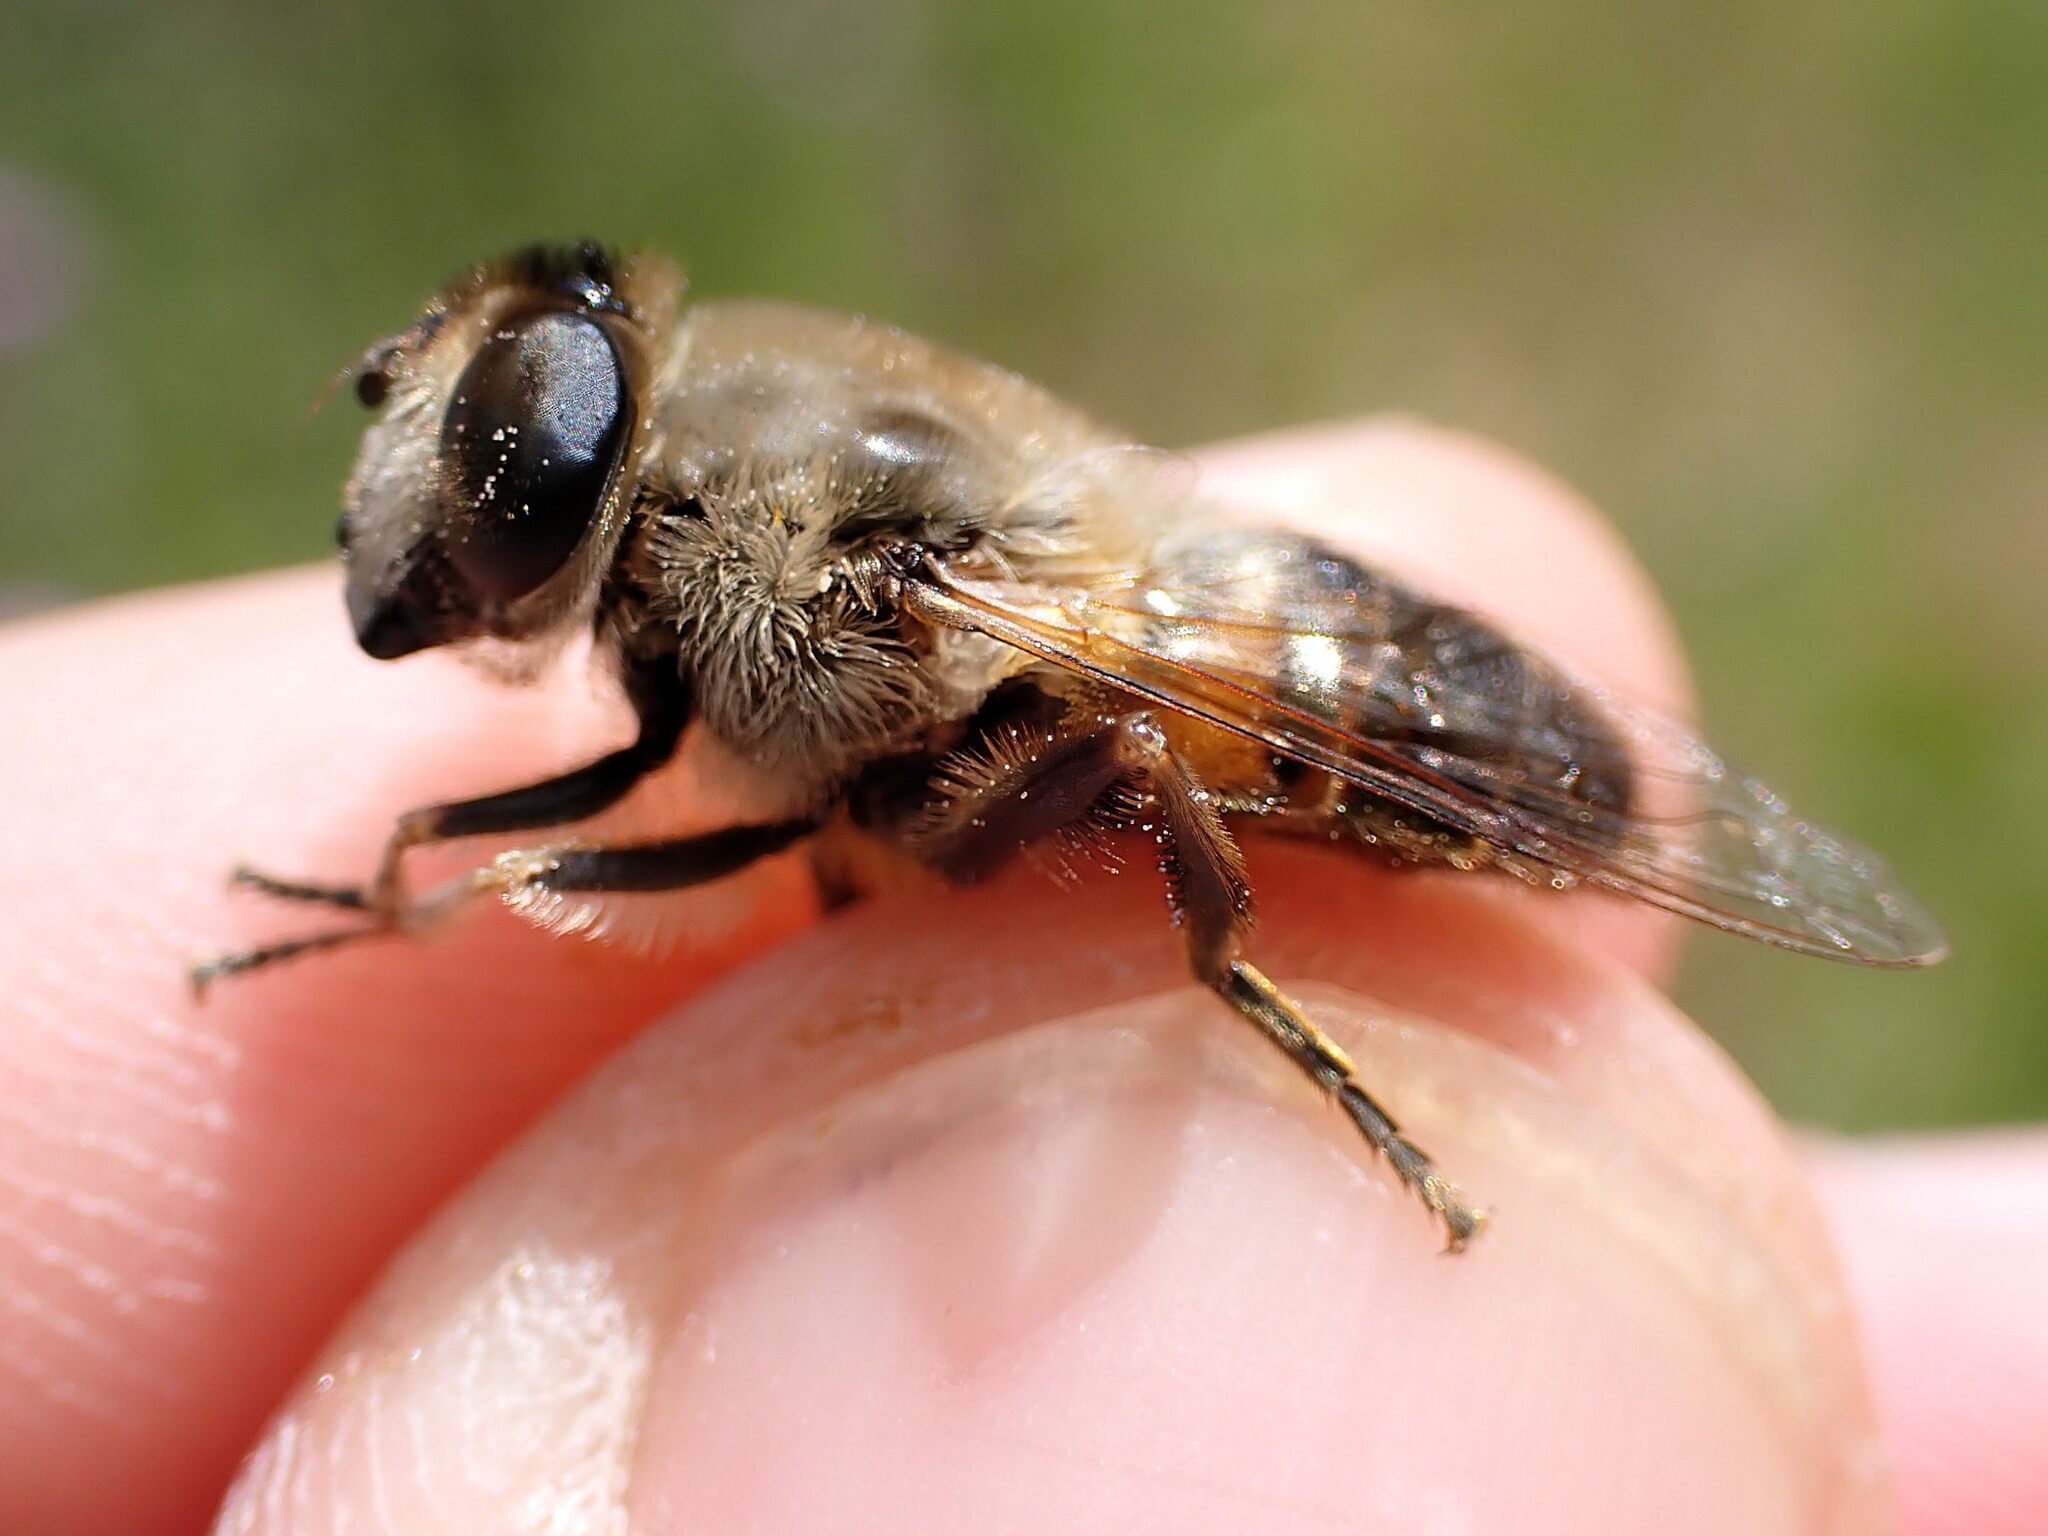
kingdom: Animalia
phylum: Arthropoda
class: Insecta
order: Diptera
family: Syrphidae
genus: Eristalis
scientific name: Eristalis tenax
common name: Drone fly
